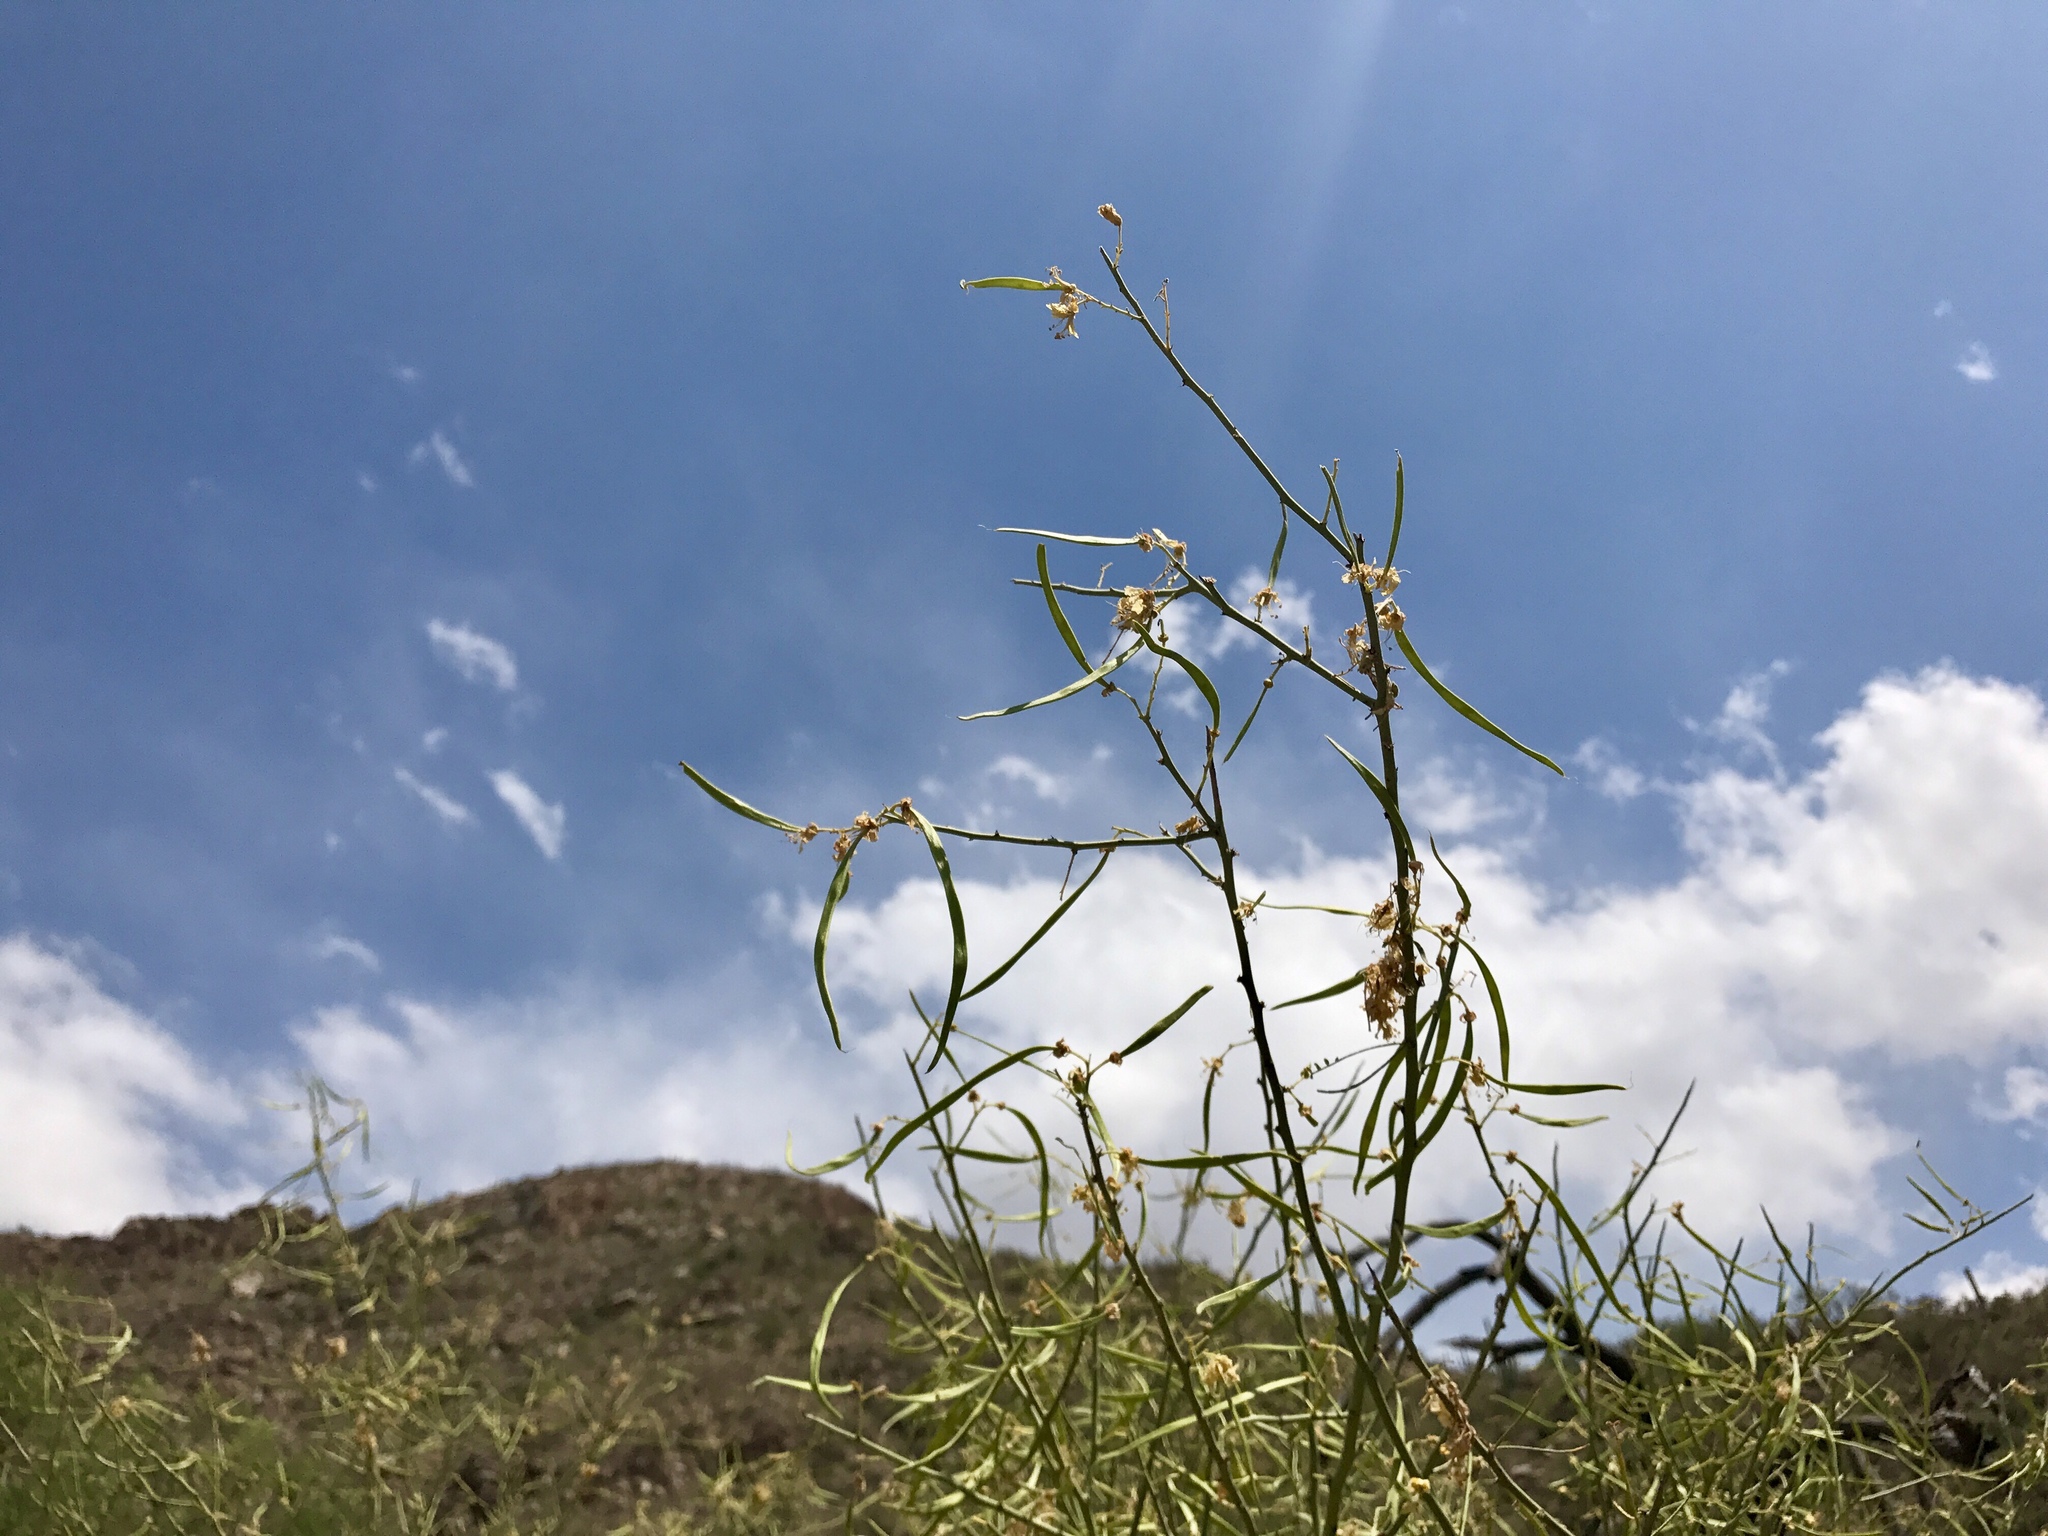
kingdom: Plantae
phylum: Tracheophyta
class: Magnoliopsida
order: Fabales
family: Fabaceae
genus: Parkinsonia
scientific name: Parkinsonia microphylla
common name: Yellow paloverde
